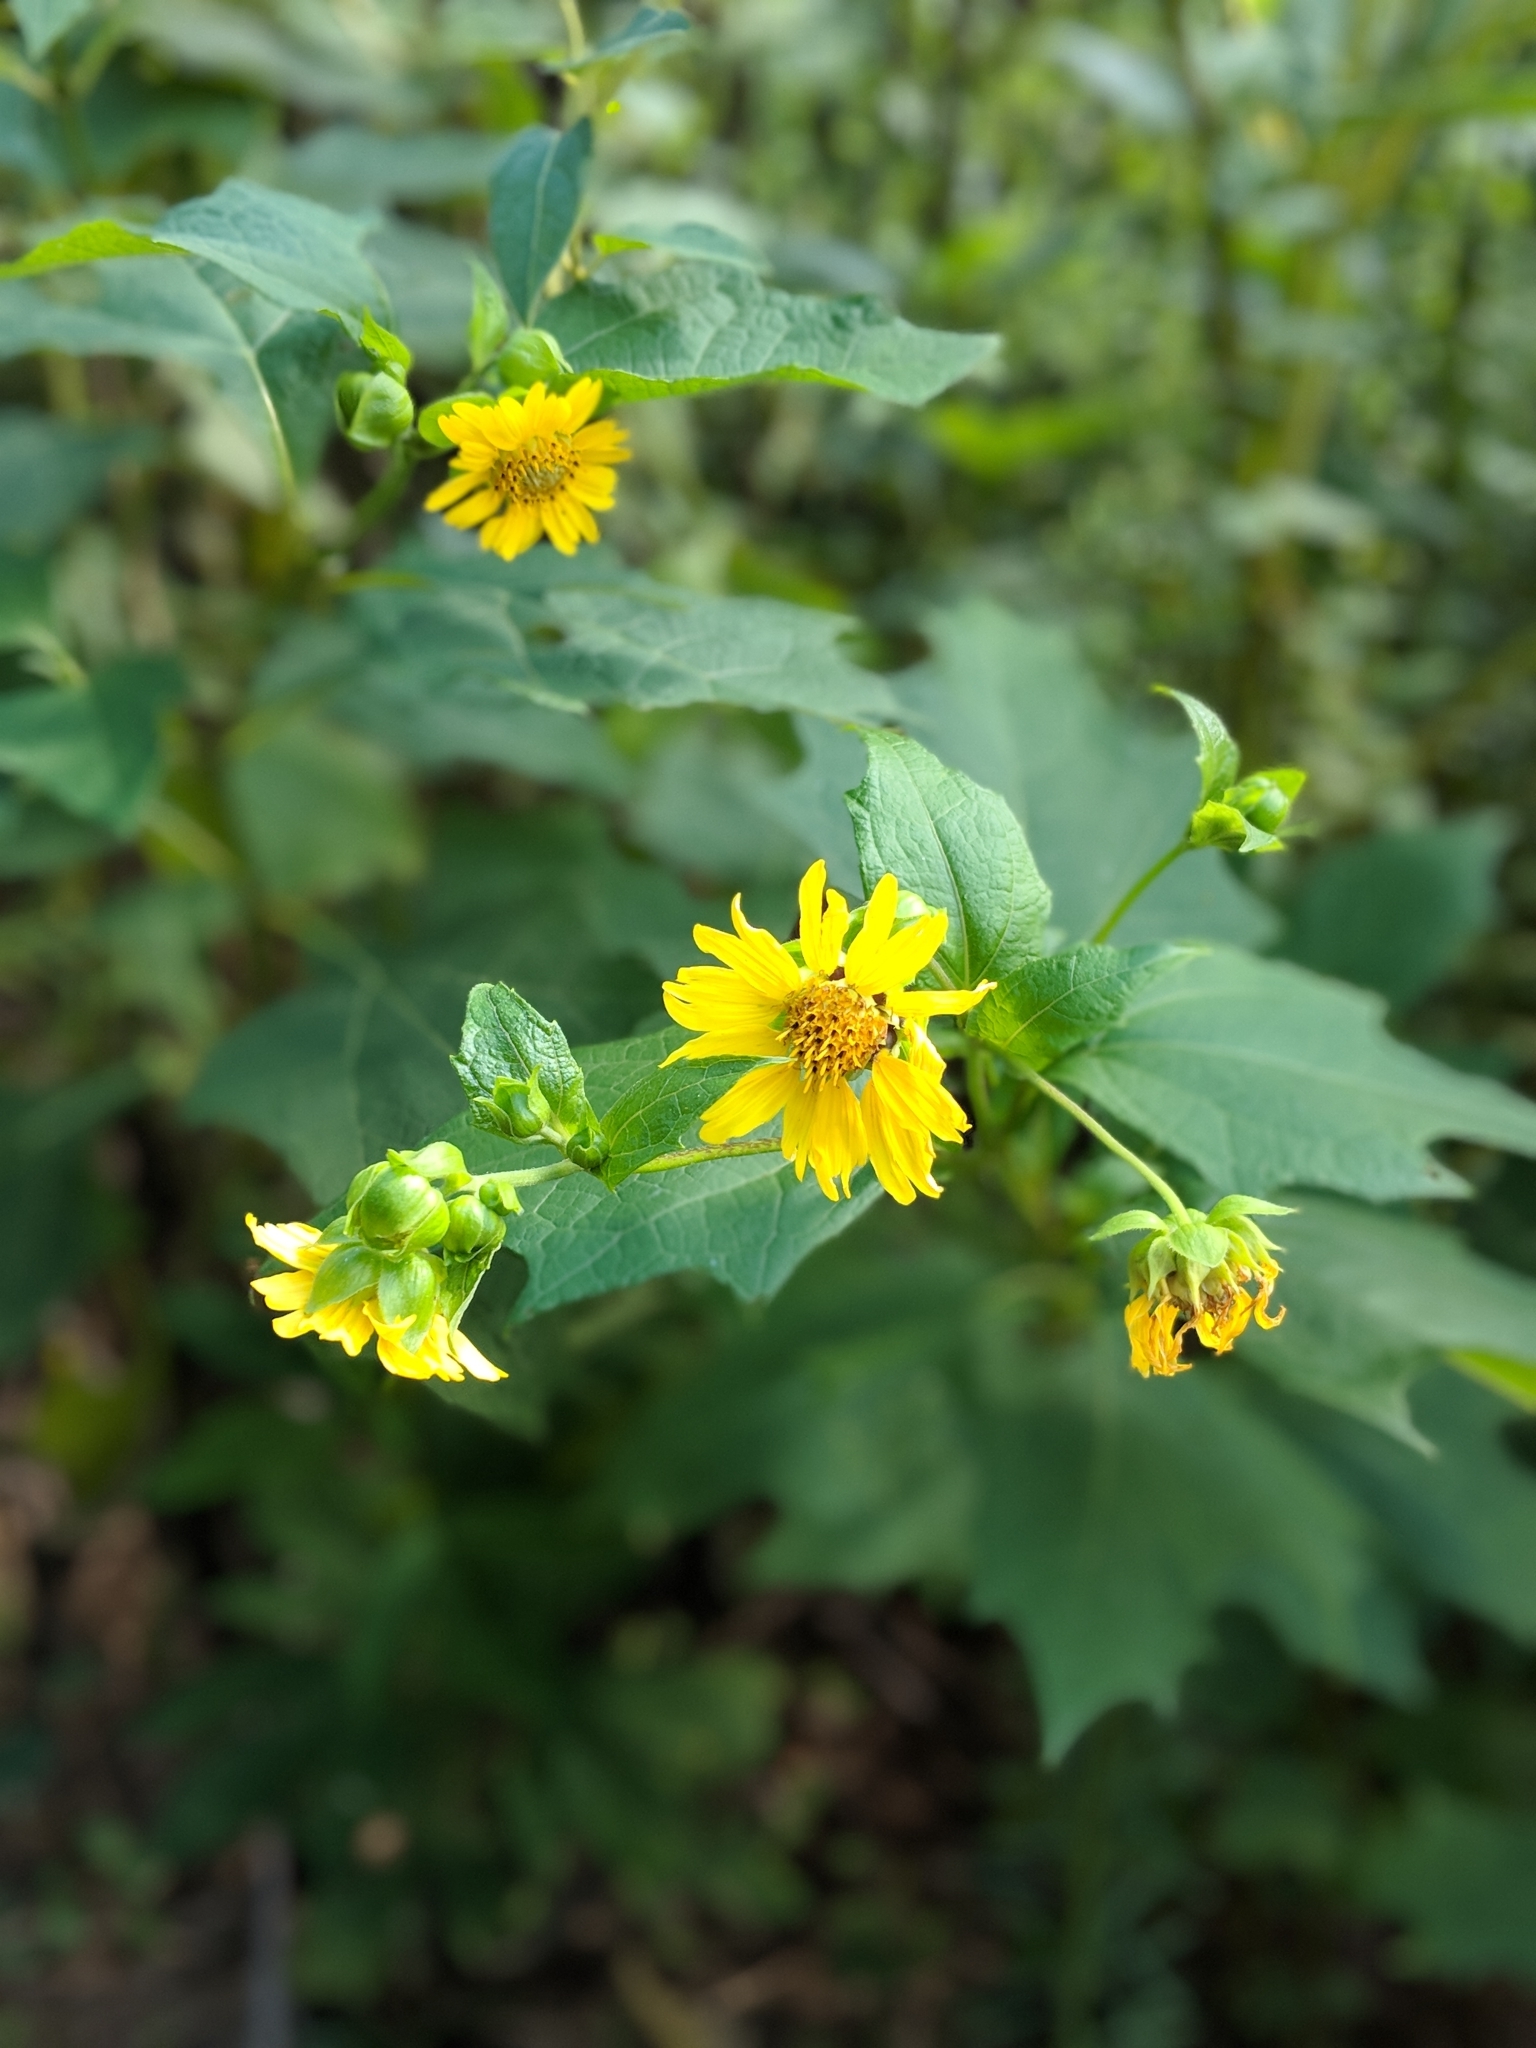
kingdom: Plantae
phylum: Tracheophyta
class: Magnoliopsida
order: Asterales
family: Asteraceae
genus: Smallanthus
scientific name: Smallanthus uvedalia
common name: Bear's-foot
